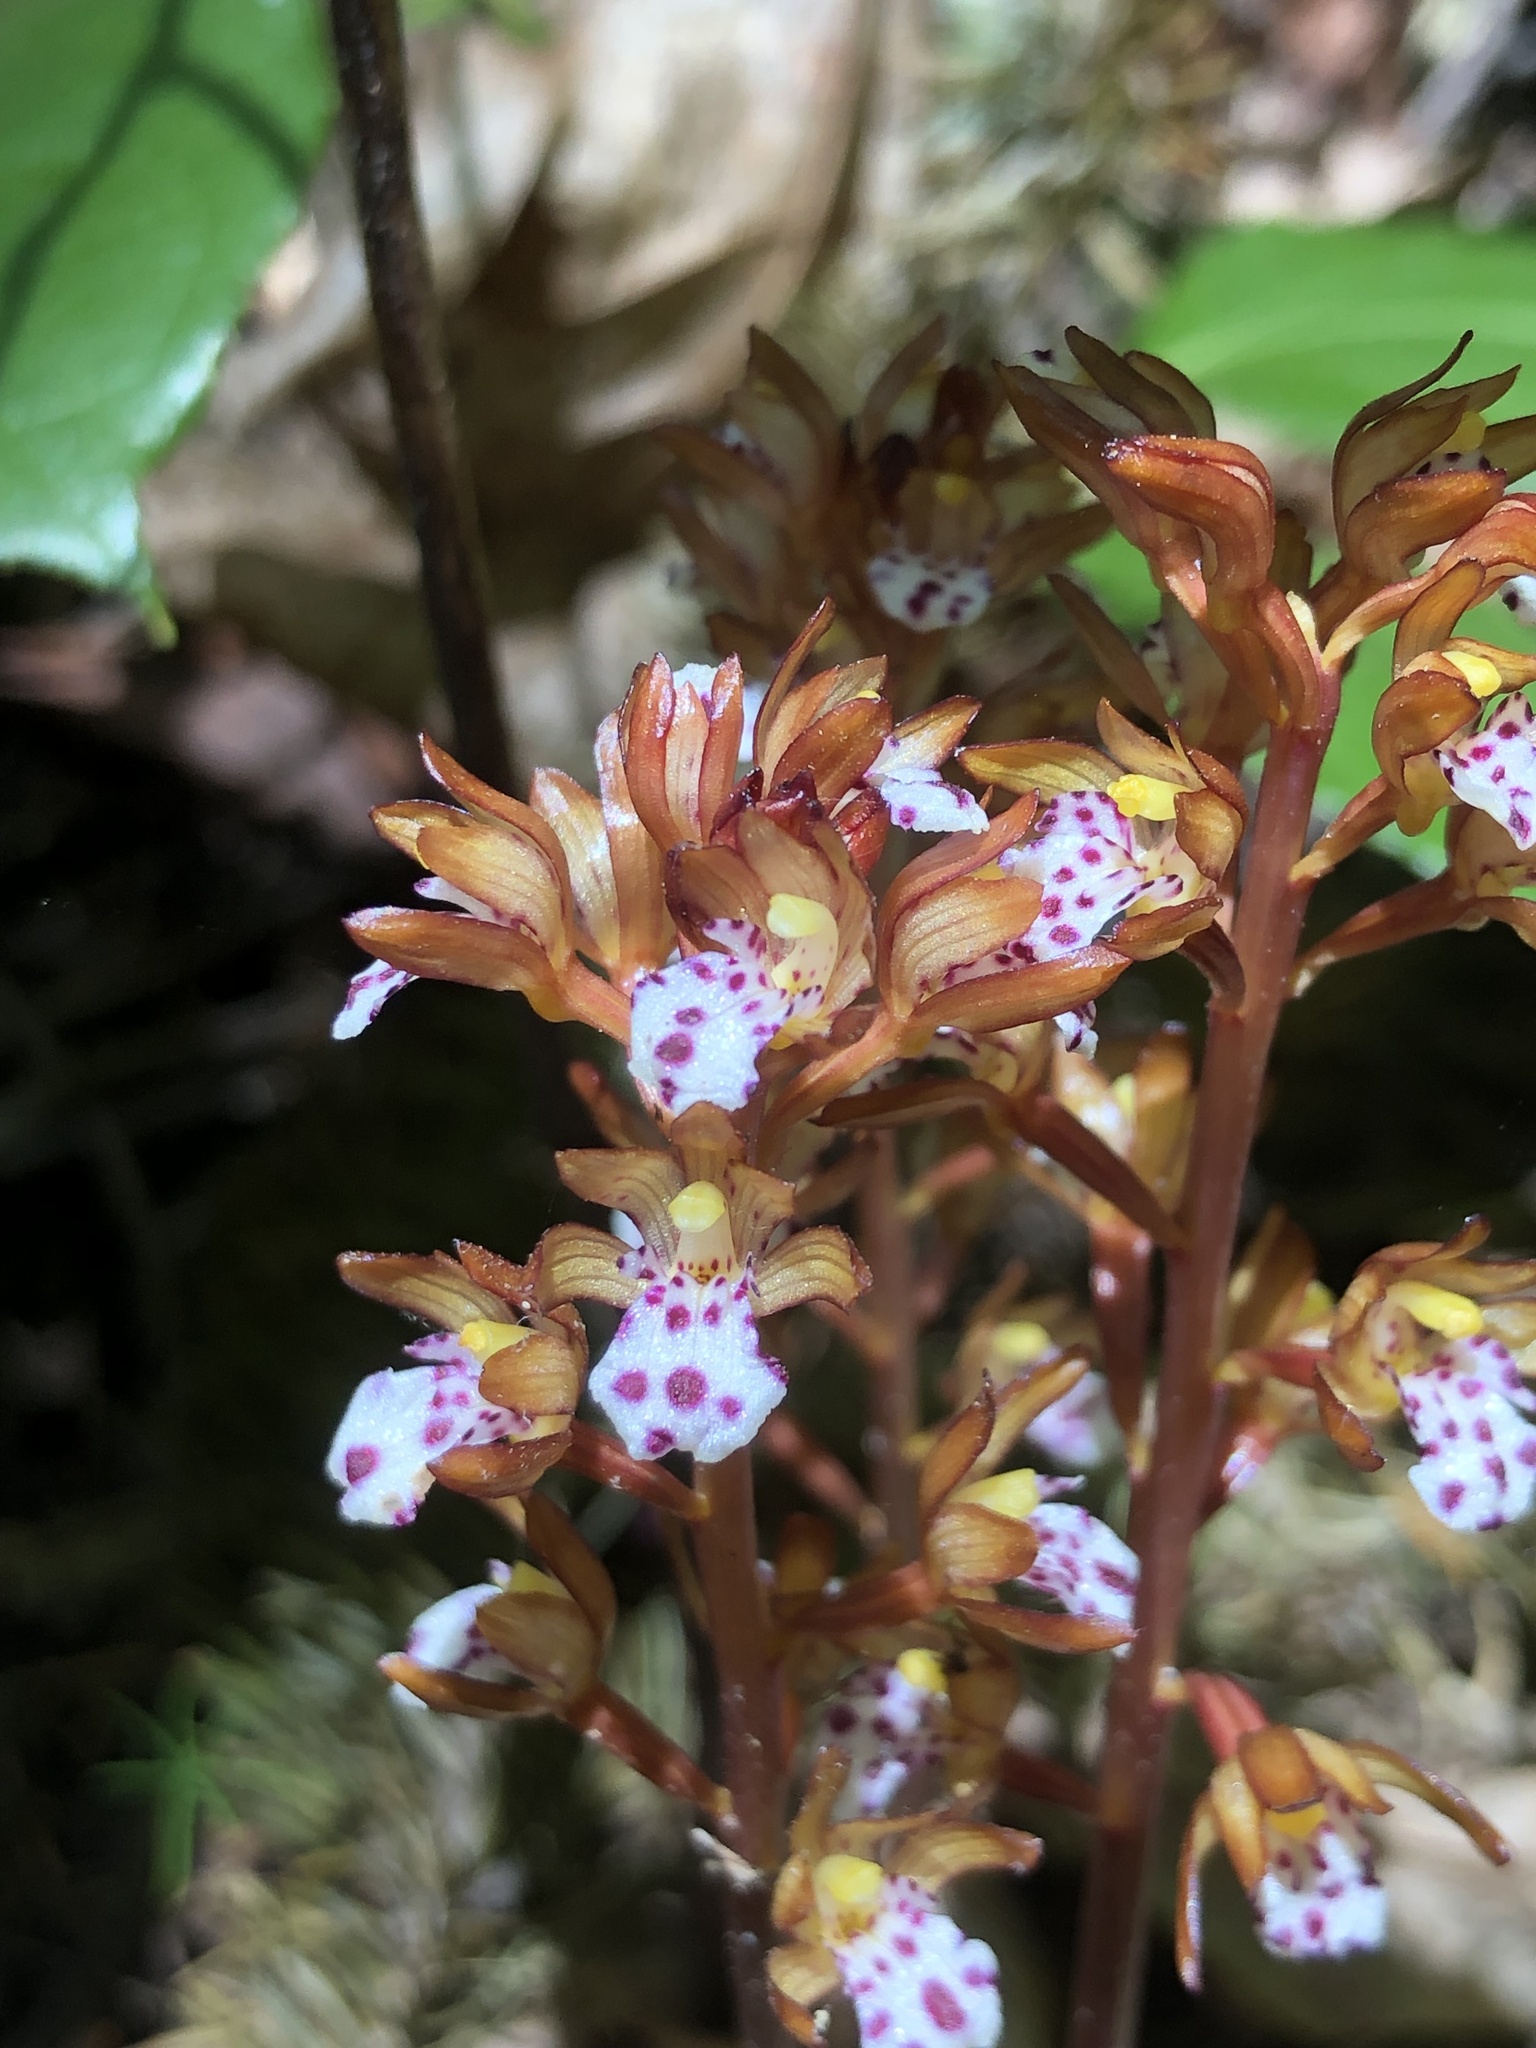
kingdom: Plantae
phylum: Tracheophyta
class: Liliopsida
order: Asparagales
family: Orchidaceae
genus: Corallorhiza
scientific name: Corallorhiza maculata
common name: Spotted coralroot
